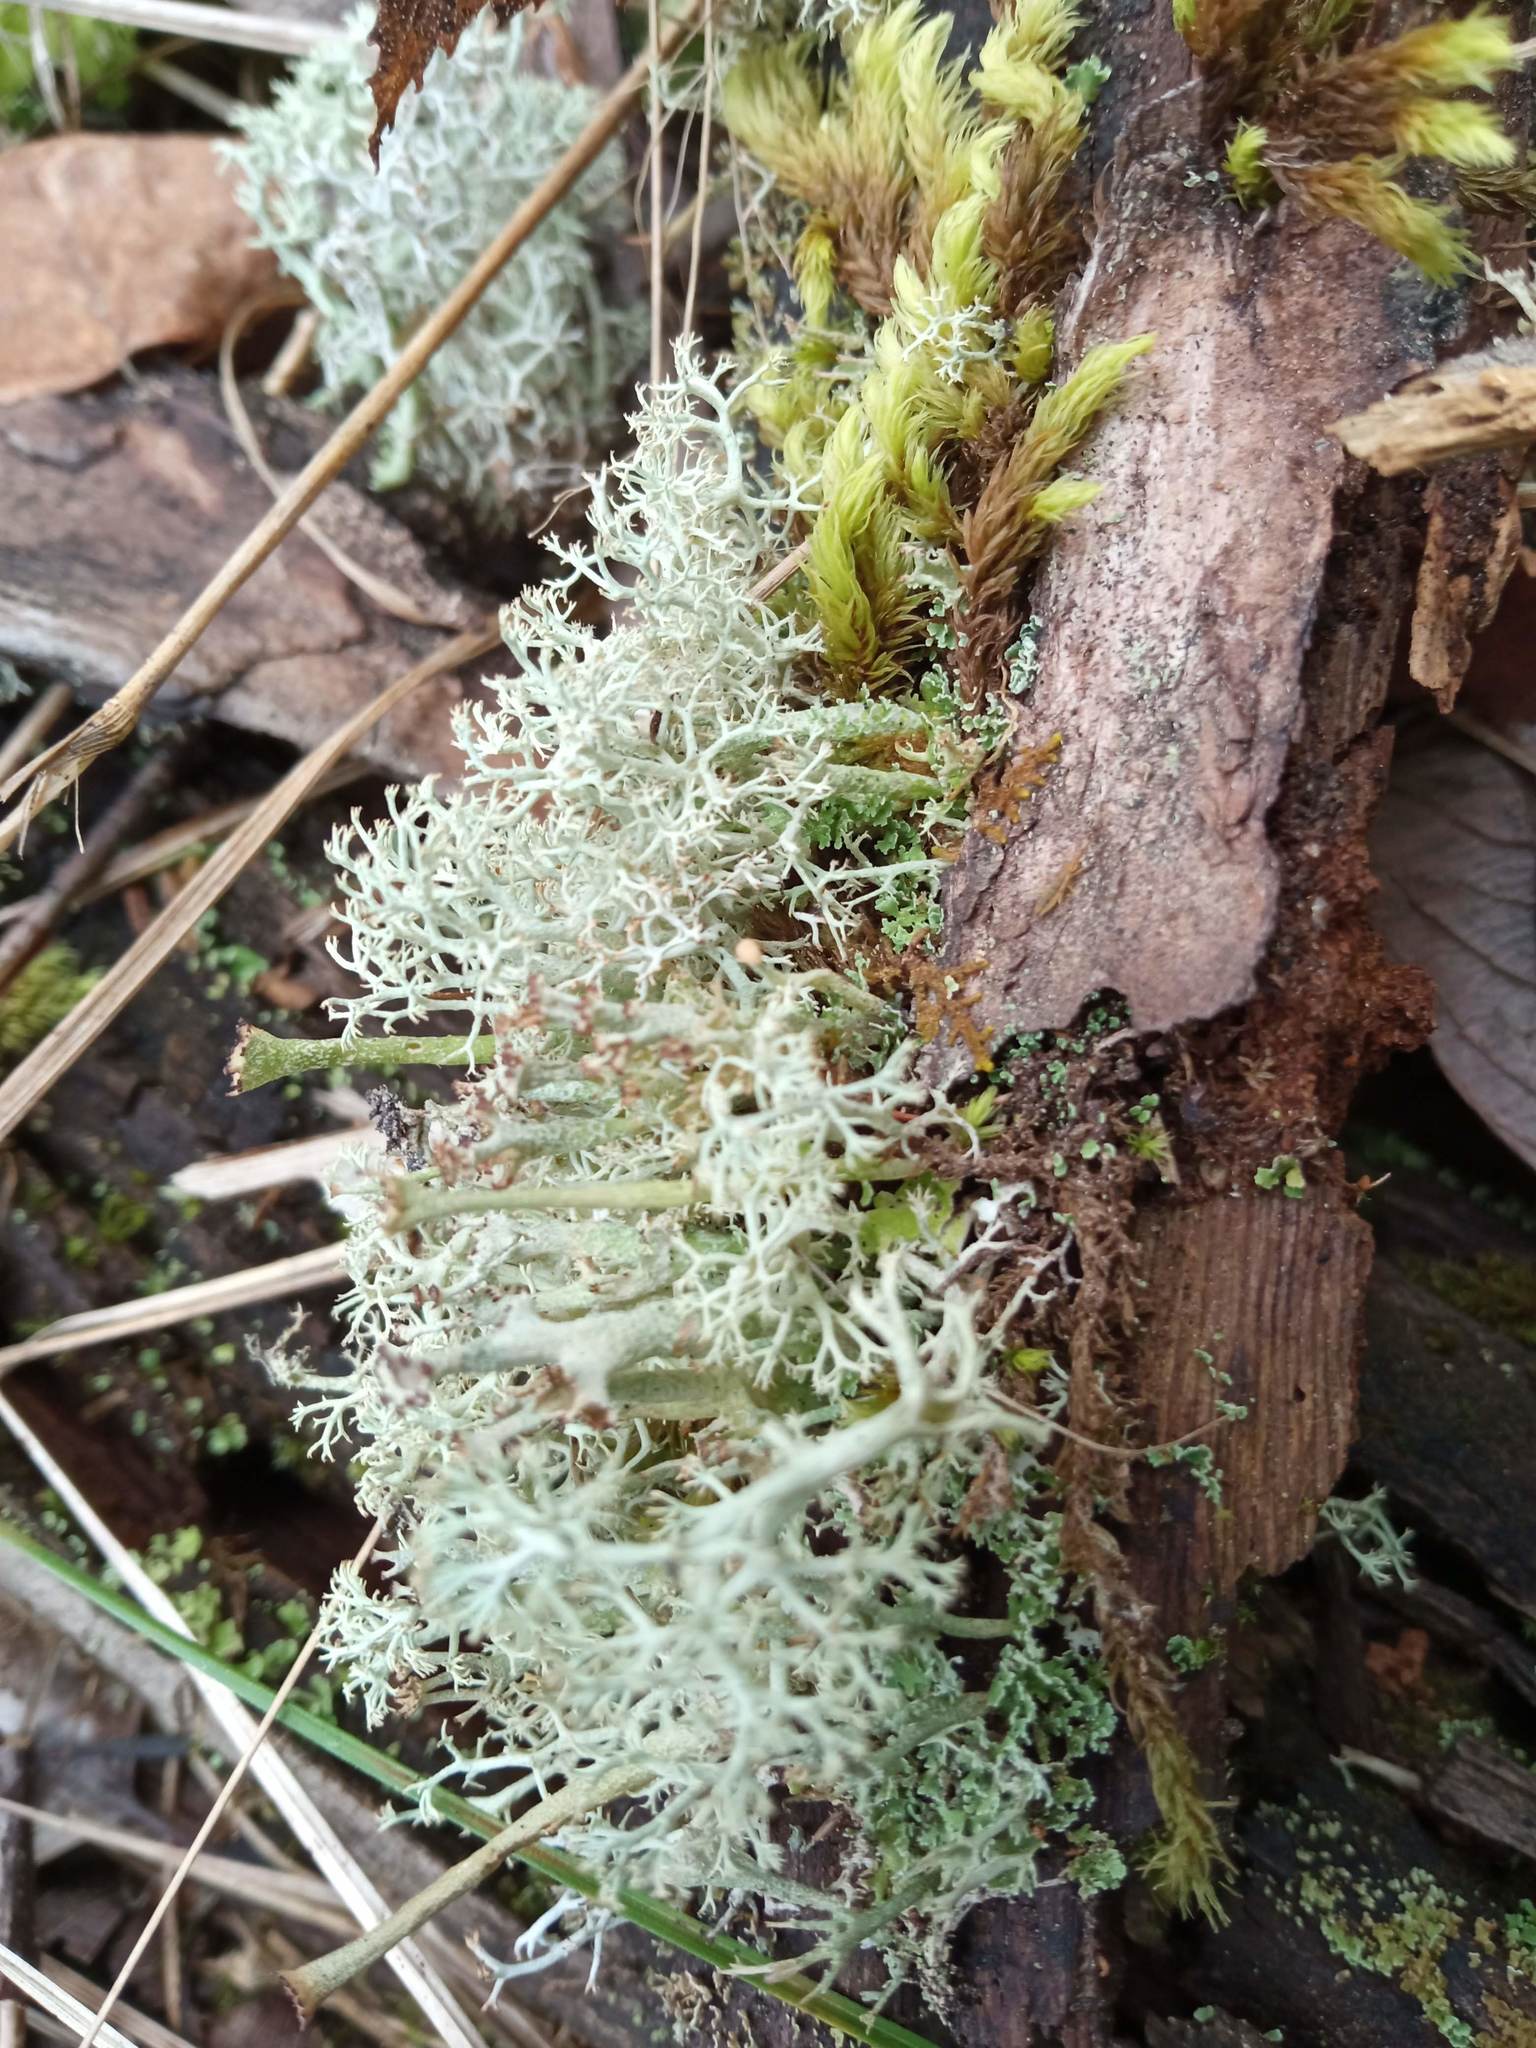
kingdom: Fungi
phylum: Ascomycota
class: Lecanoromycetes
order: Lecanorales
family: Cladoniaceae
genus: Cladonia
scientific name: Cladonia arbuscula
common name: Reindeer lichen
